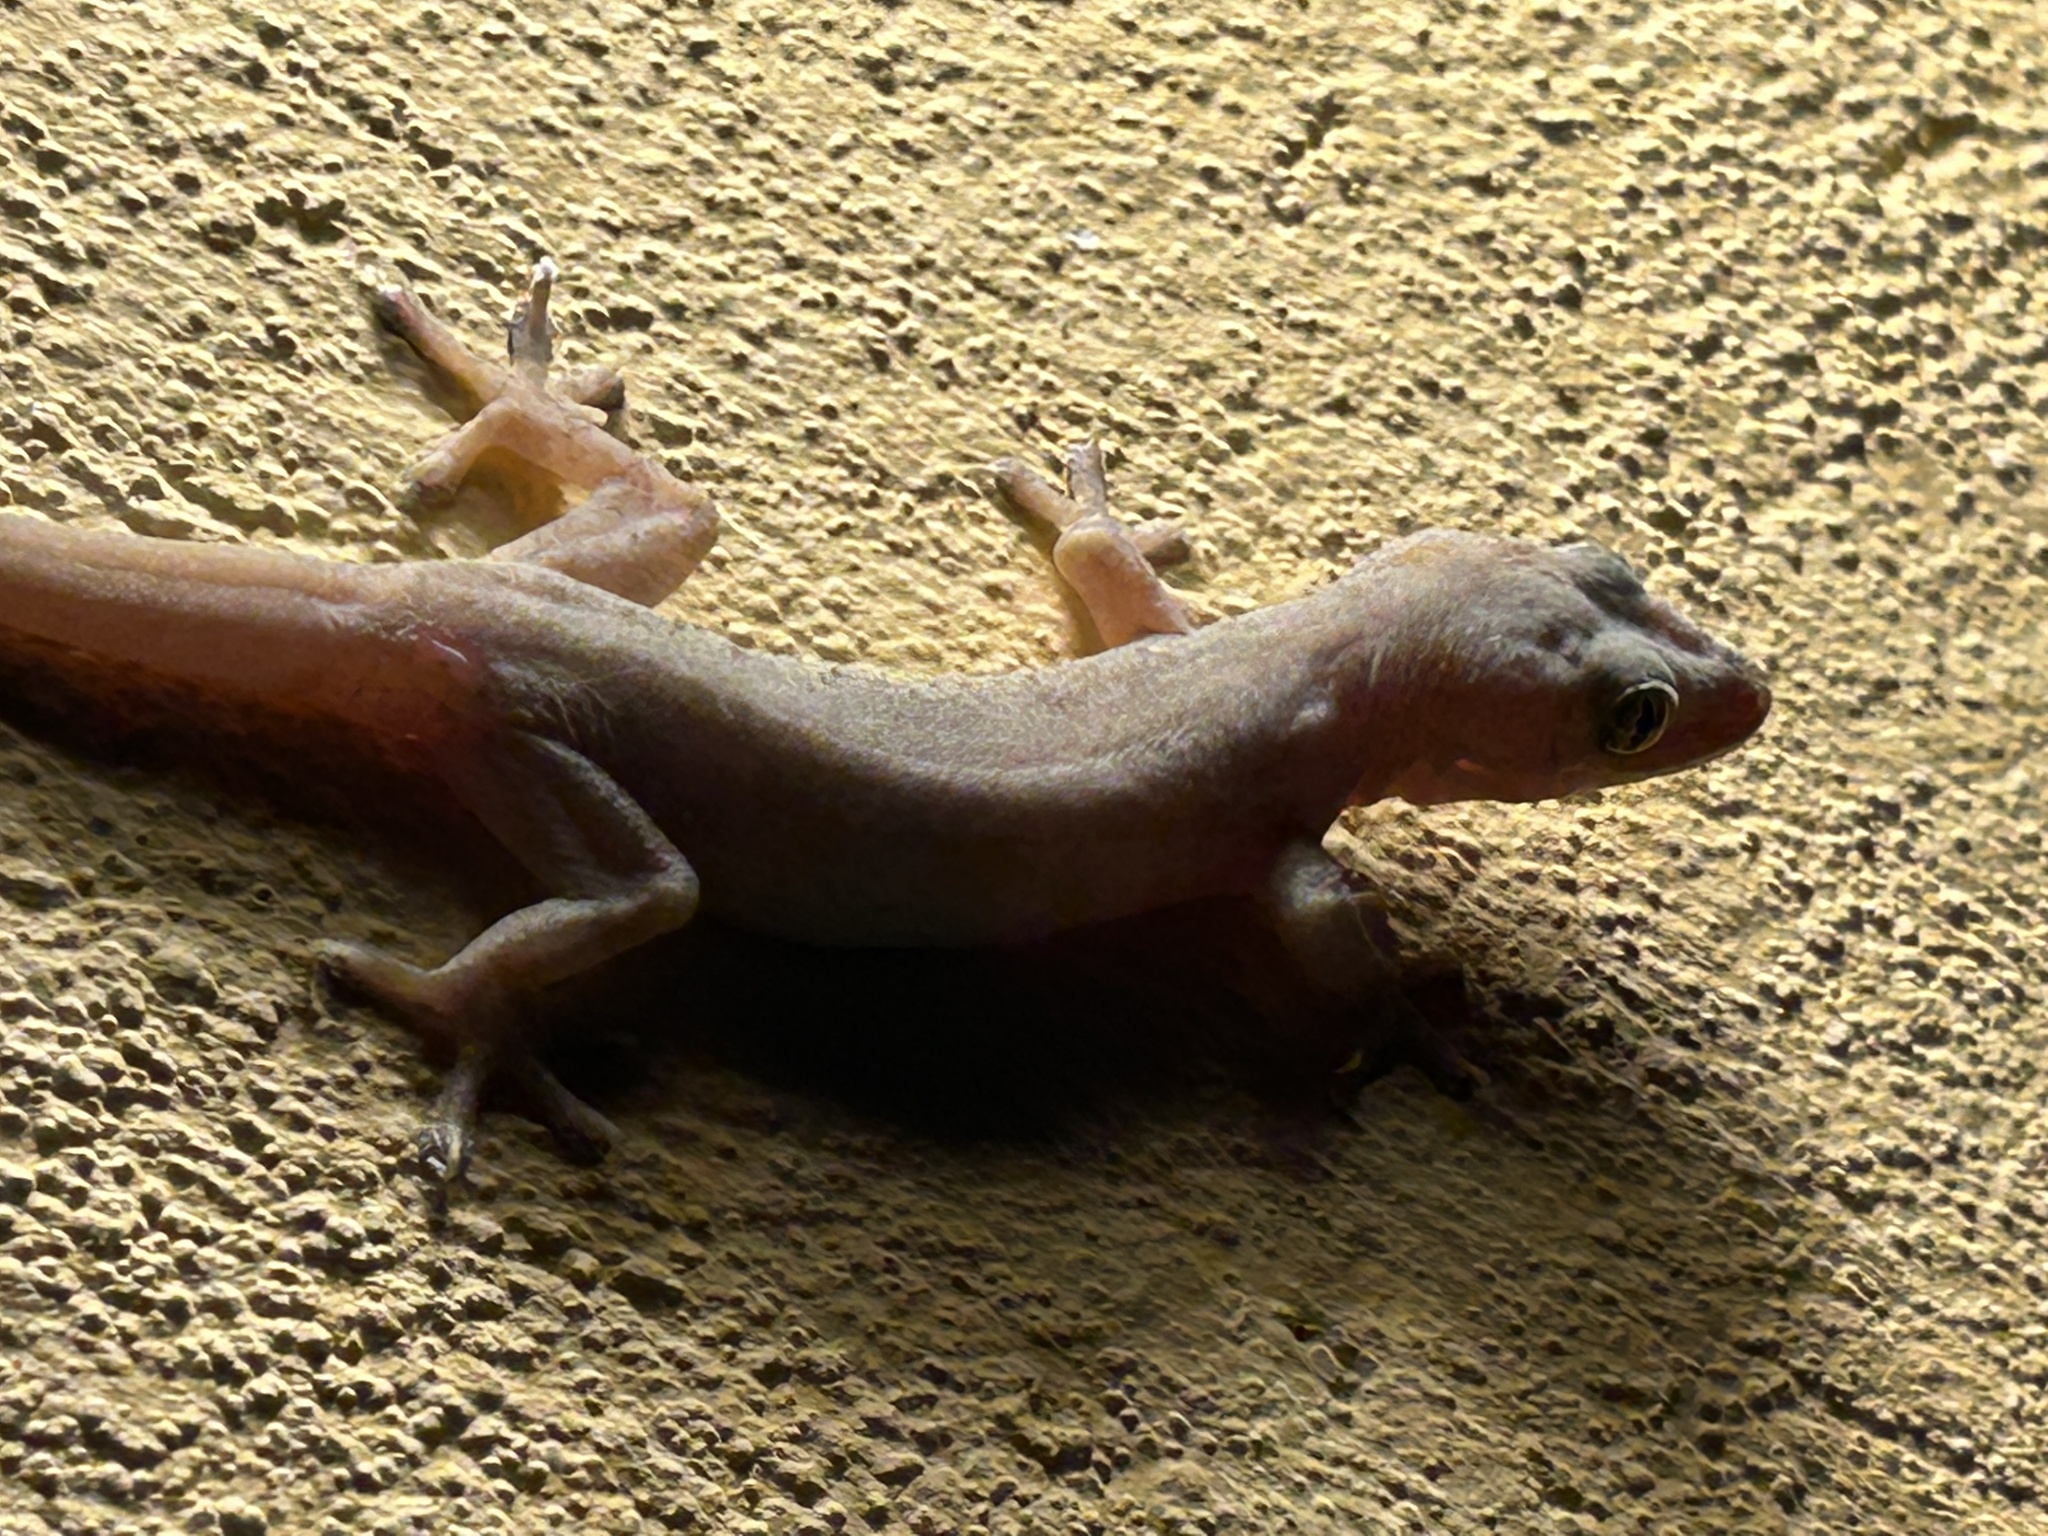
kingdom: Animalia
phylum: Chordata
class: Squamata
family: Gekkonidae
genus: Hemidactylus
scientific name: Hemidactylus frenatus
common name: Common house gecko
